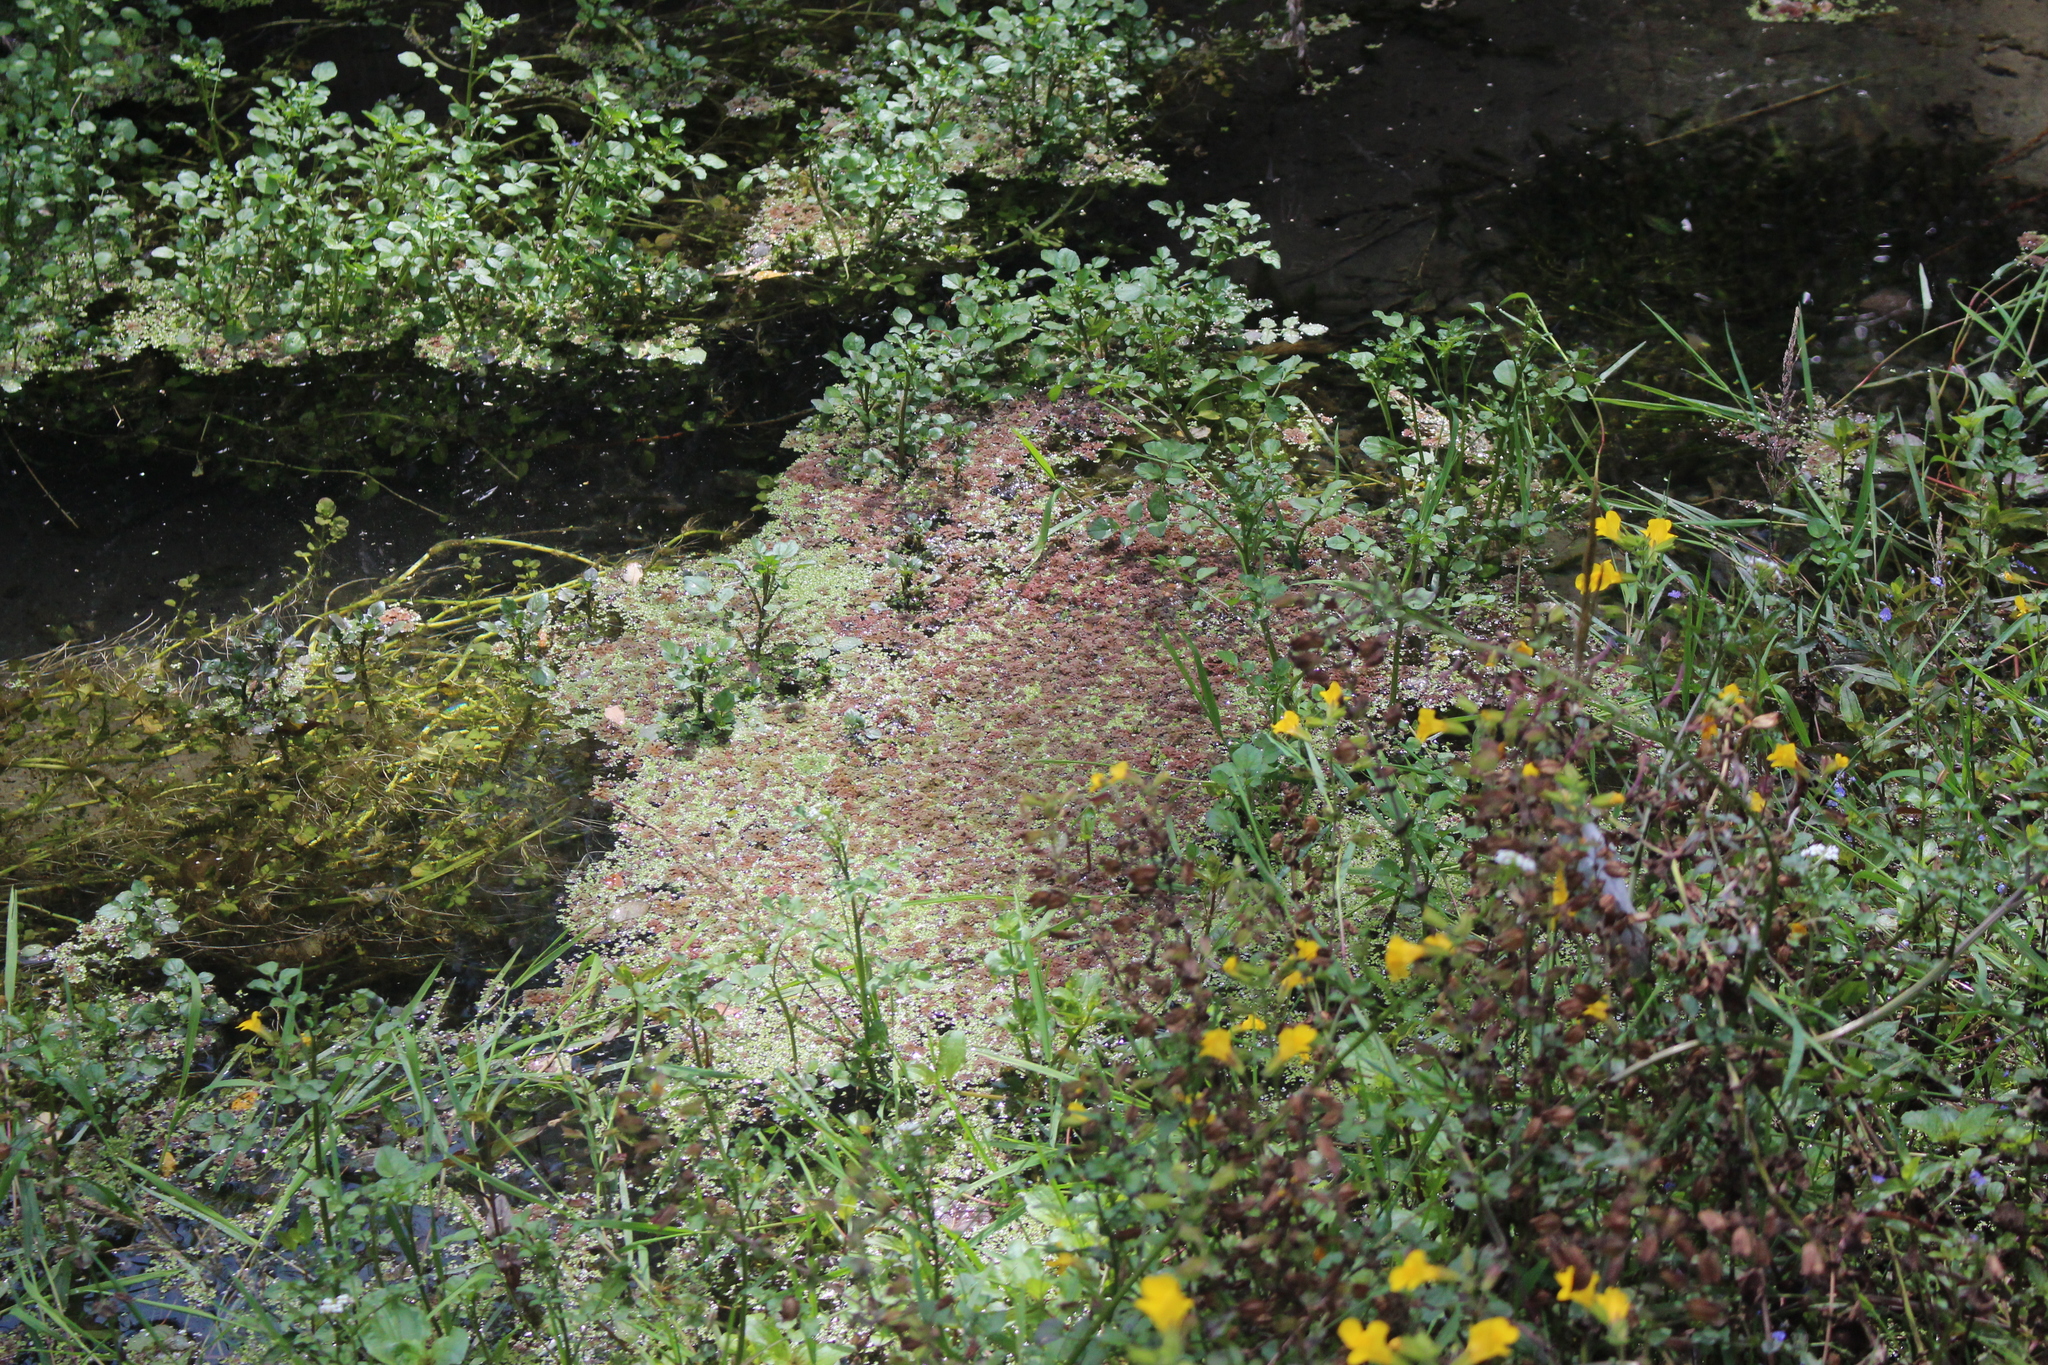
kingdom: Plantae
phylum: Tracheophyta
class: Polypodiopsida
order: Salviniales
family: Salviniaceae
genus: Azolla
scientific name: Azolla rubra
